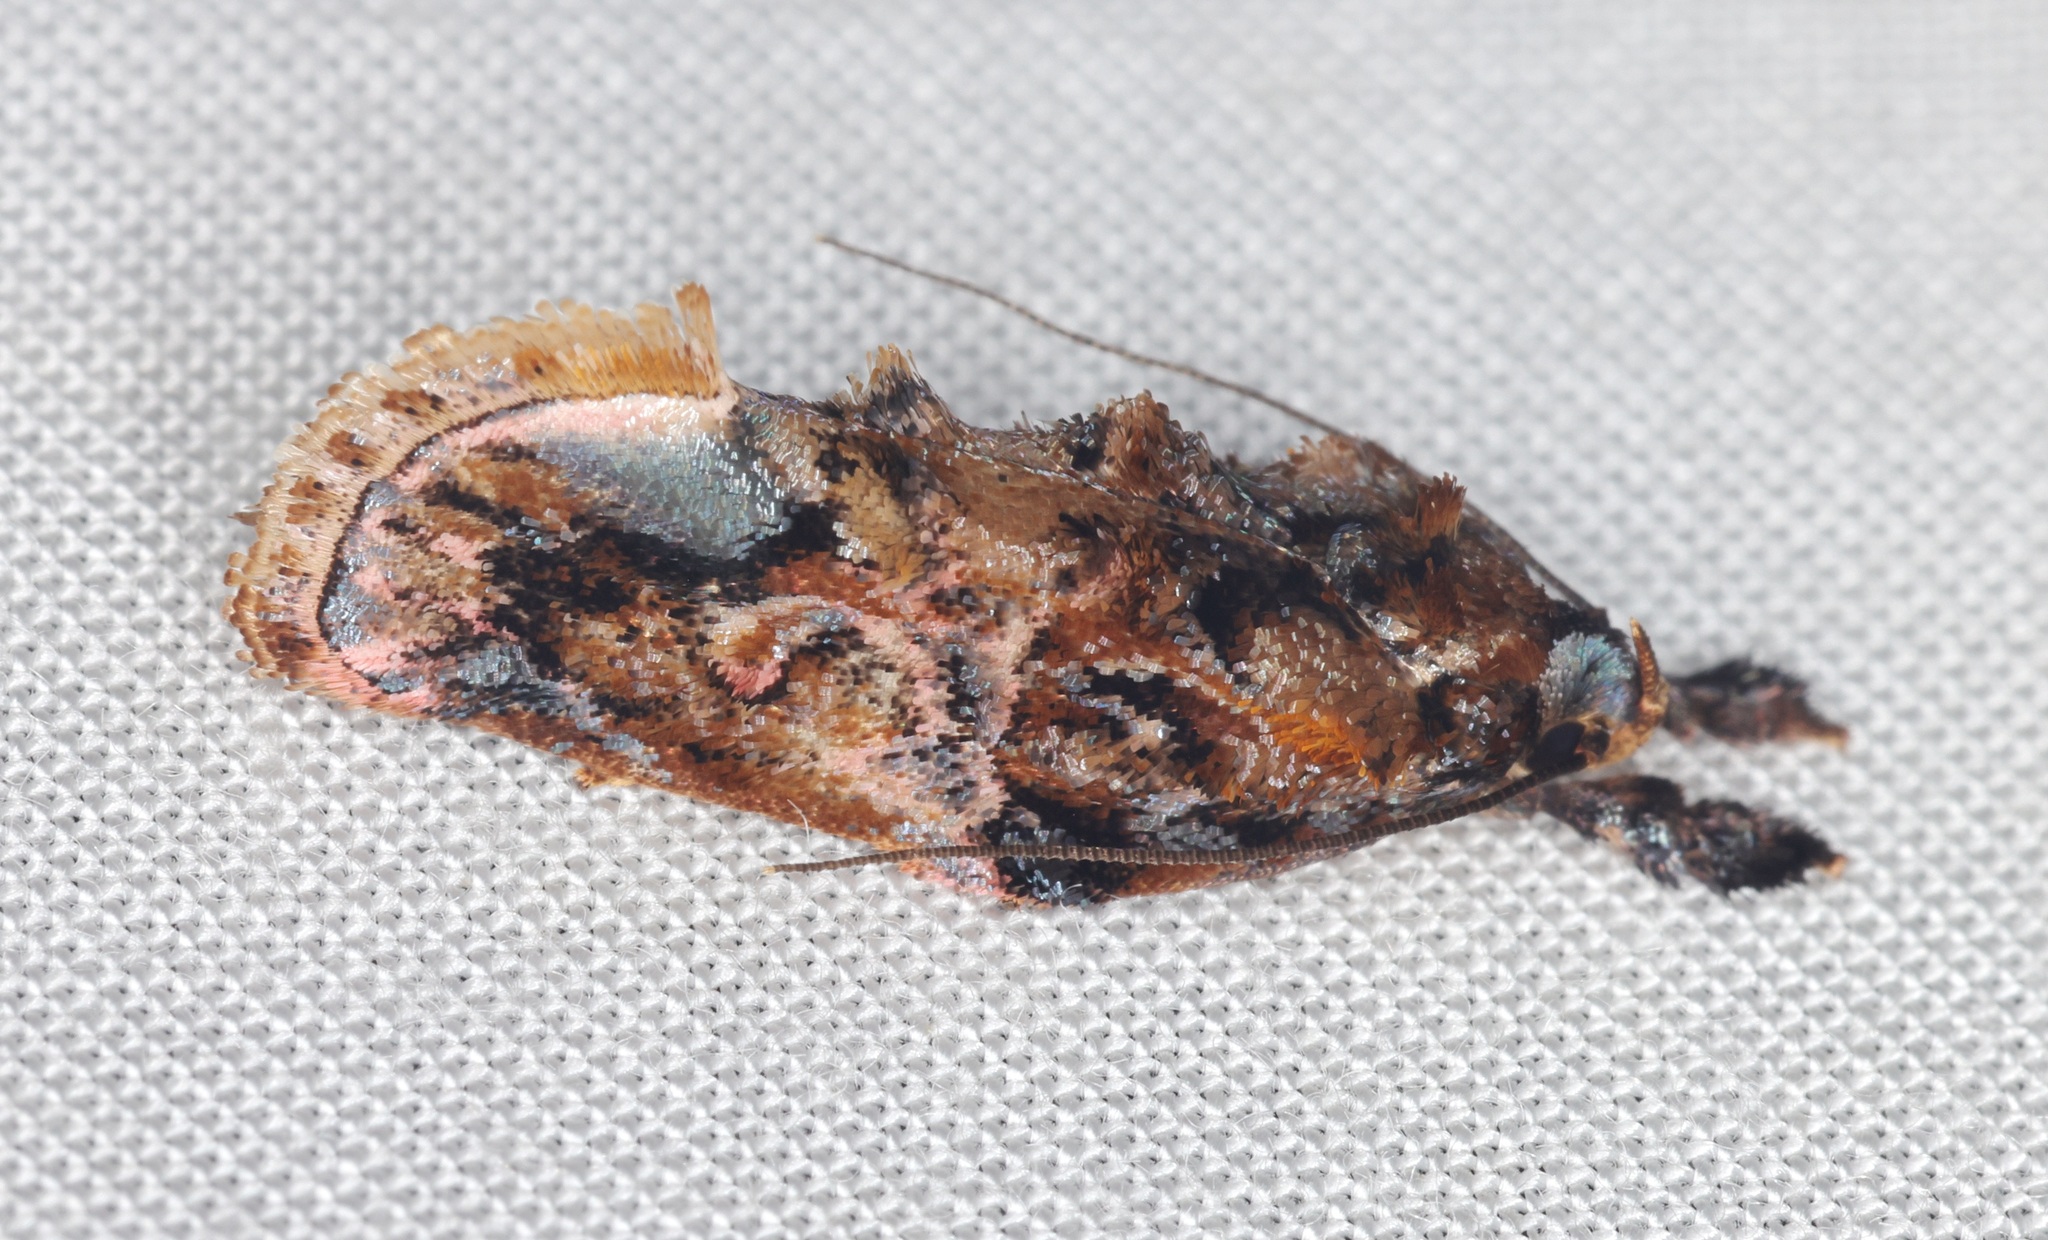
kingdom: Animalia
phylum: Arthropoda
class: Insecta
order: Lepidoptera
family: Depressariidae
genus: Aeolanthes
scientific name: Aeolanthes
